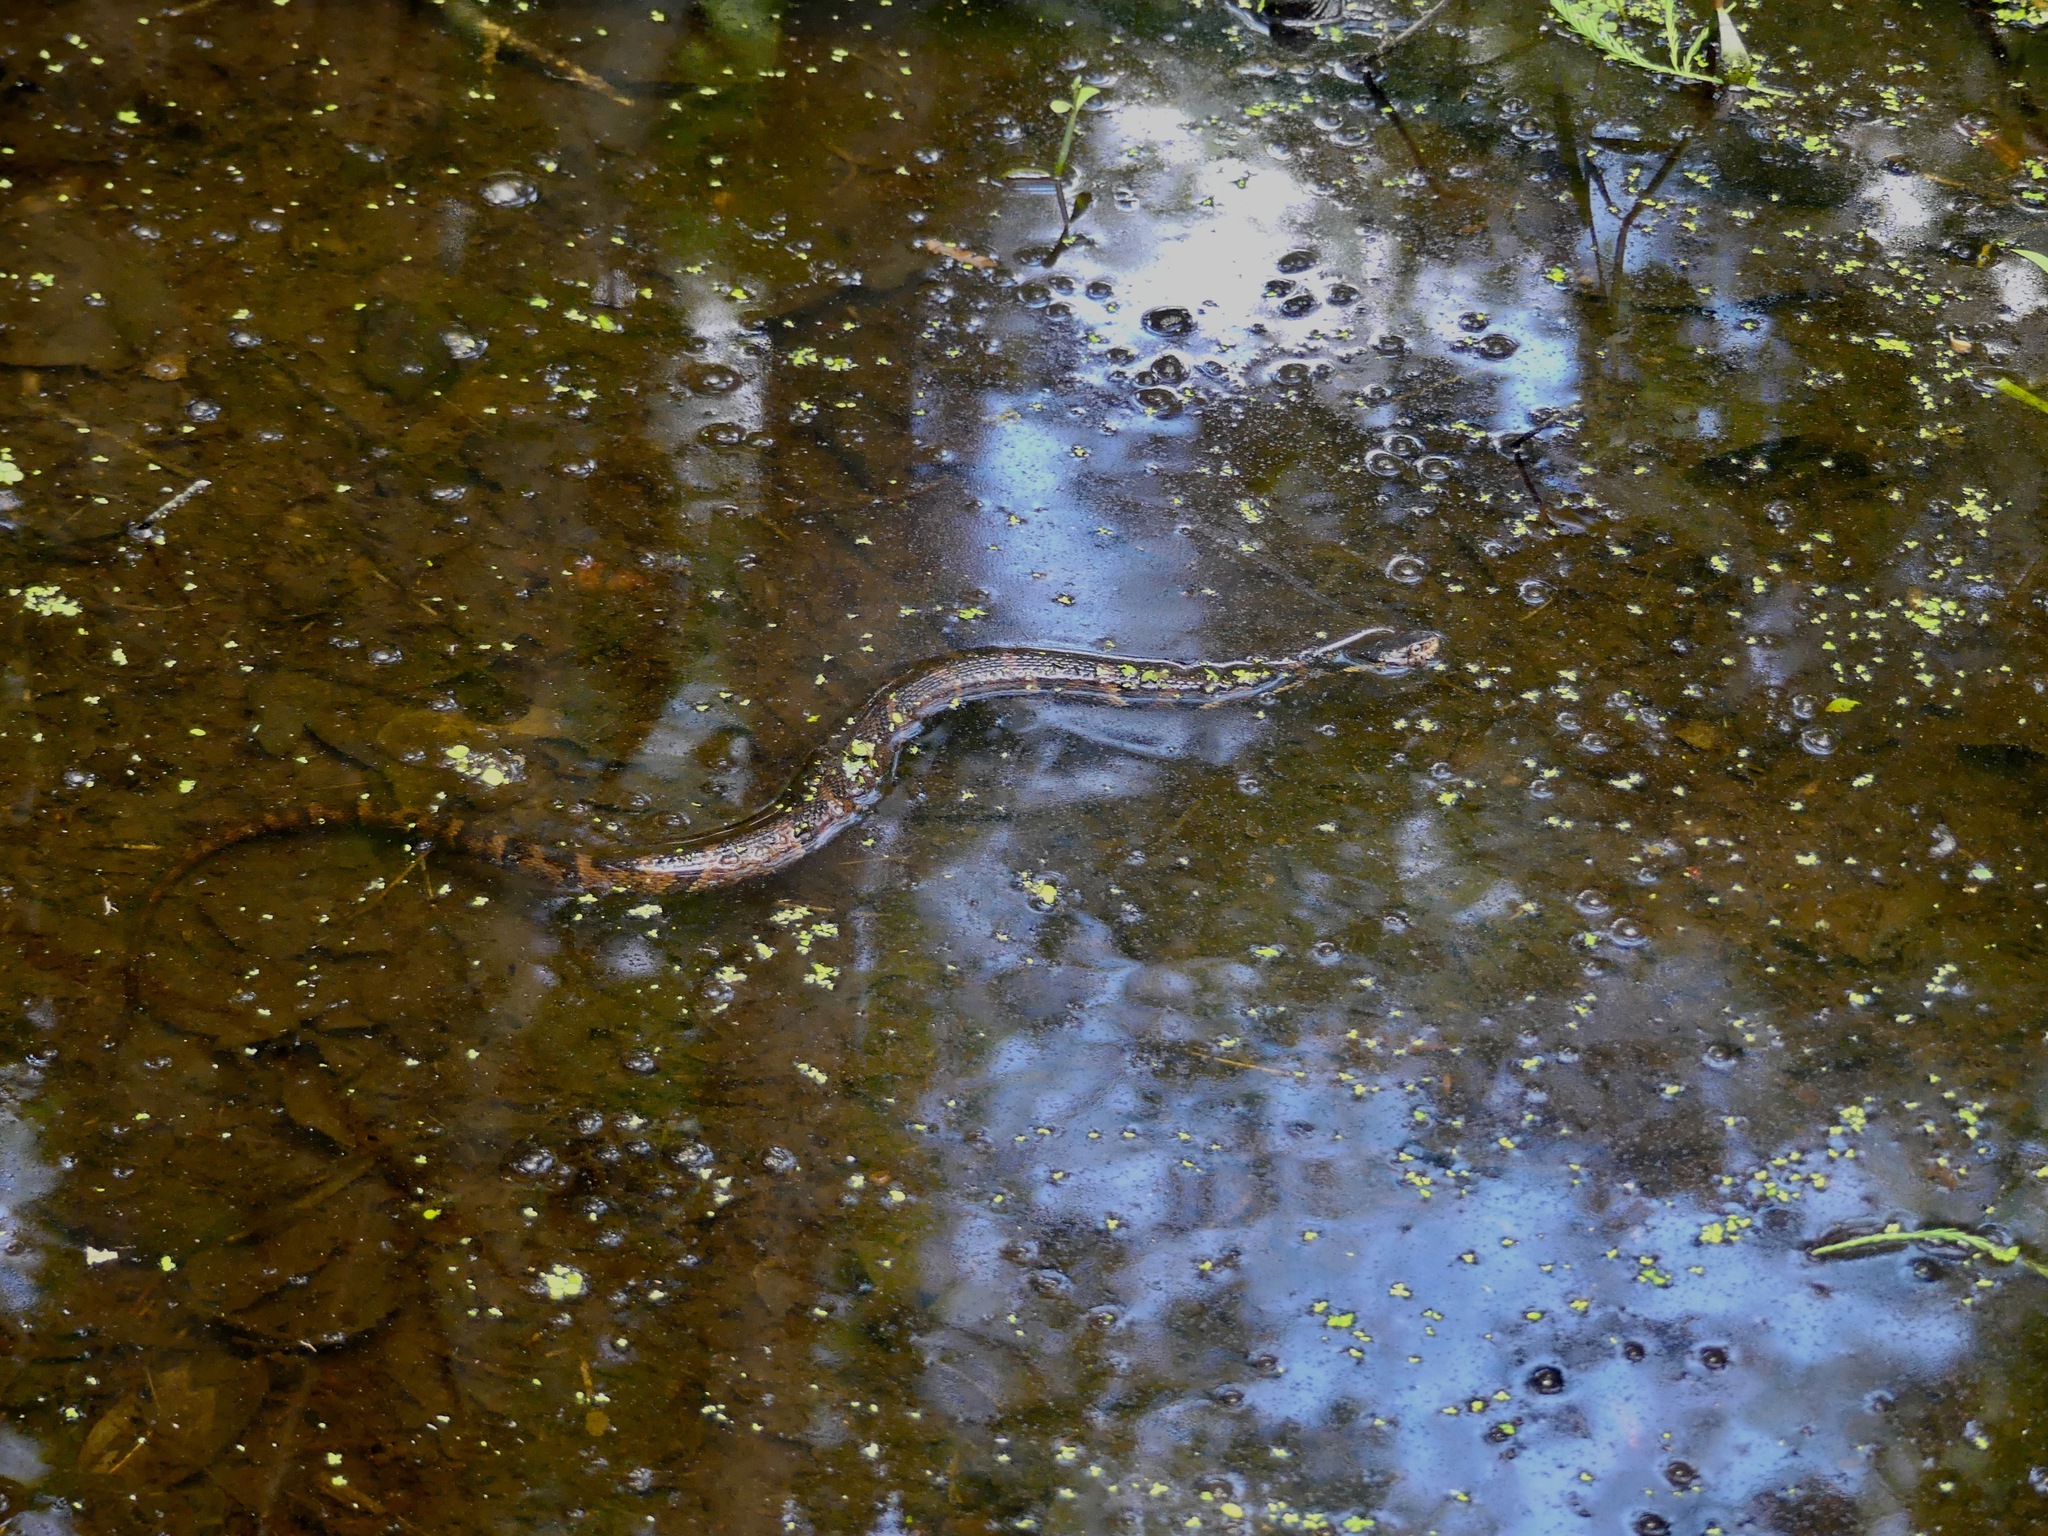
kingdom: Animalia
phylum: Chordata
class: Squamata
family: Colubridae
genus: Nerodia
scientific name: Nerodia fasciata
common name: Southern water snake
